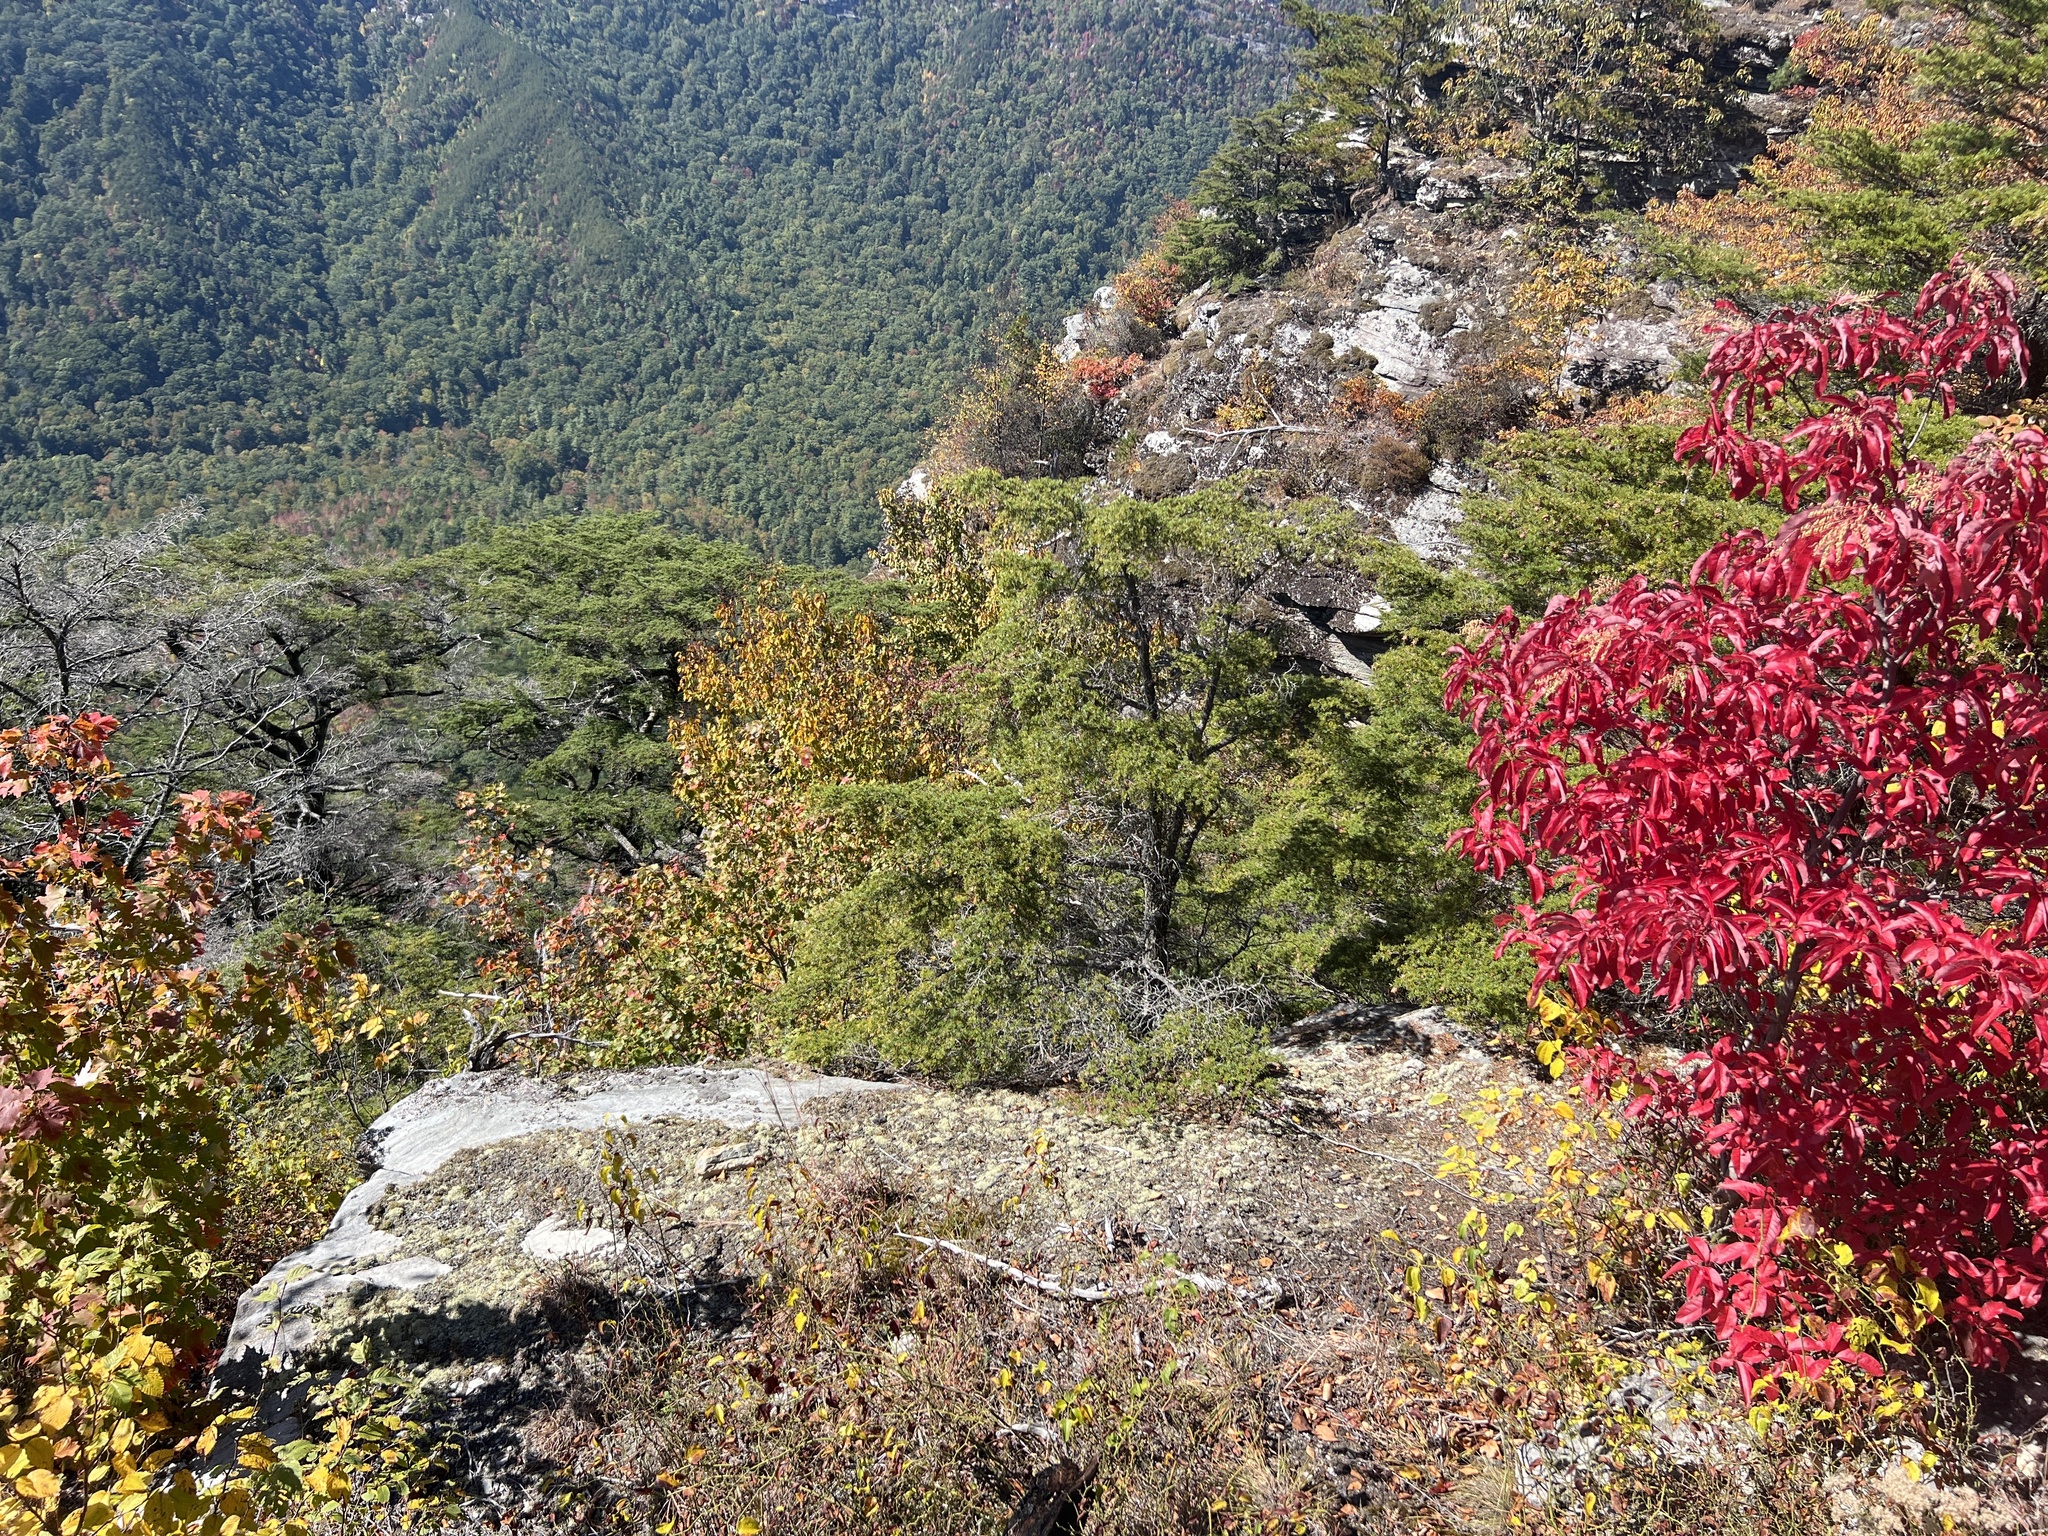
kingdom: Plantae
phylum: Tracheophyta
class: Pinopsida
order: Pinales
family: Pinaceae
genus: Tsuga
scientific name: Tsuga caroliniana
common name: Carolina hemlock
